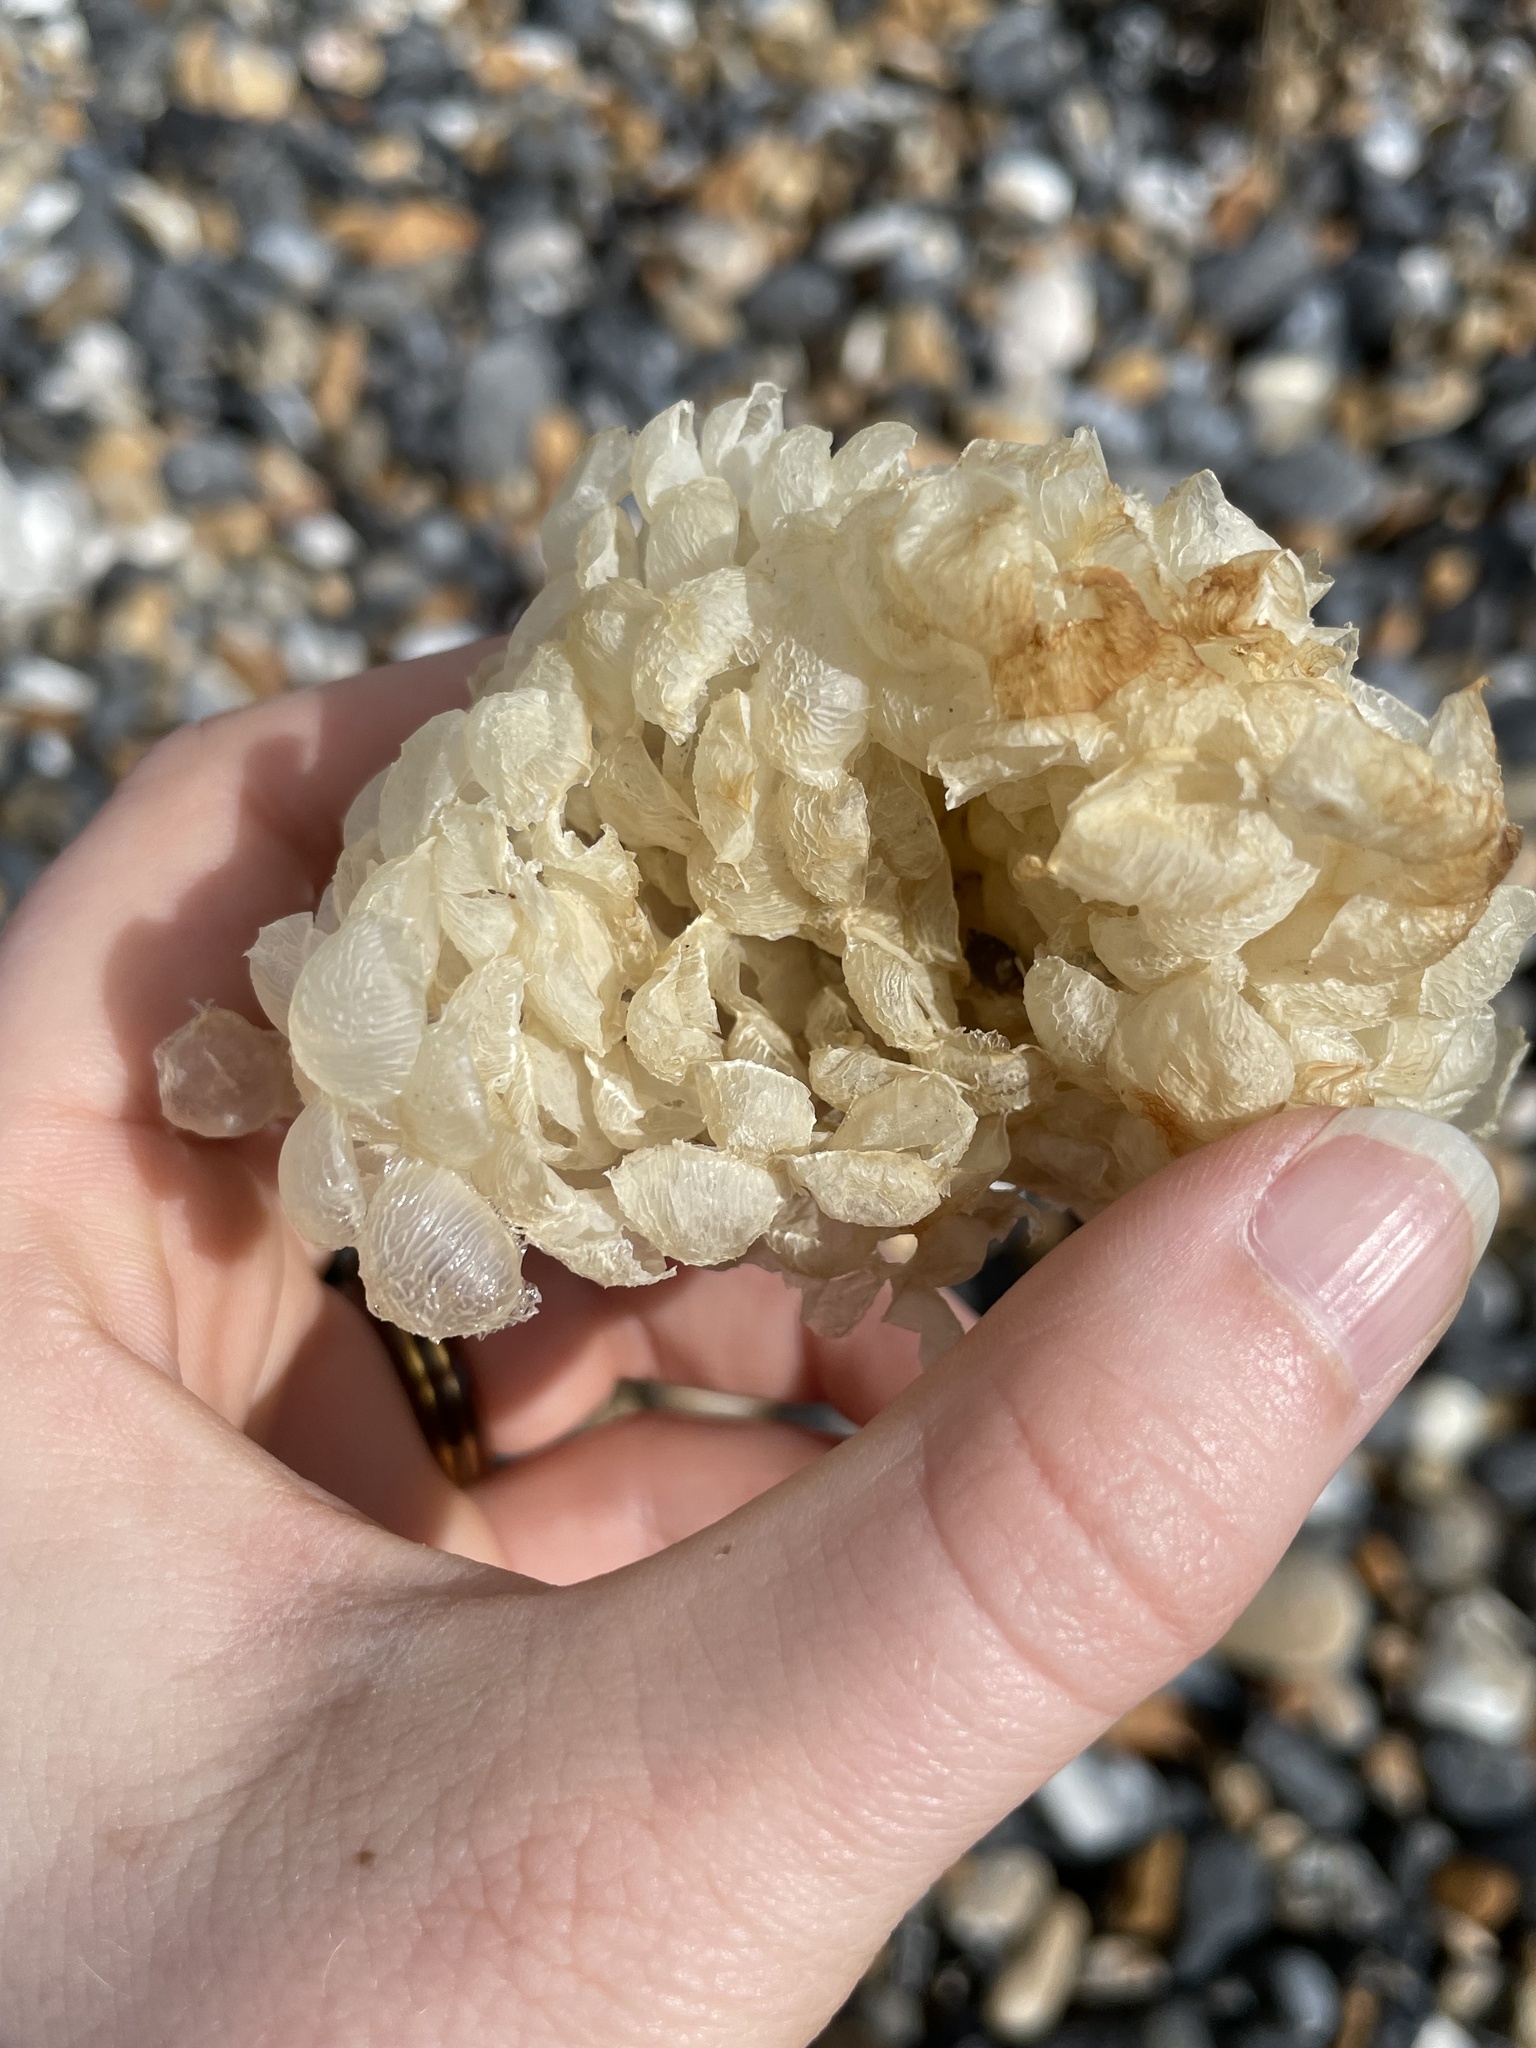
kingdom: Animalia
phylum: Mollusca
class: Gastropoda
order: Neogastropoda
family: Buccinidae
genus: Buccinum
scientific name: Buccinum undatum
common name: Common whelk
